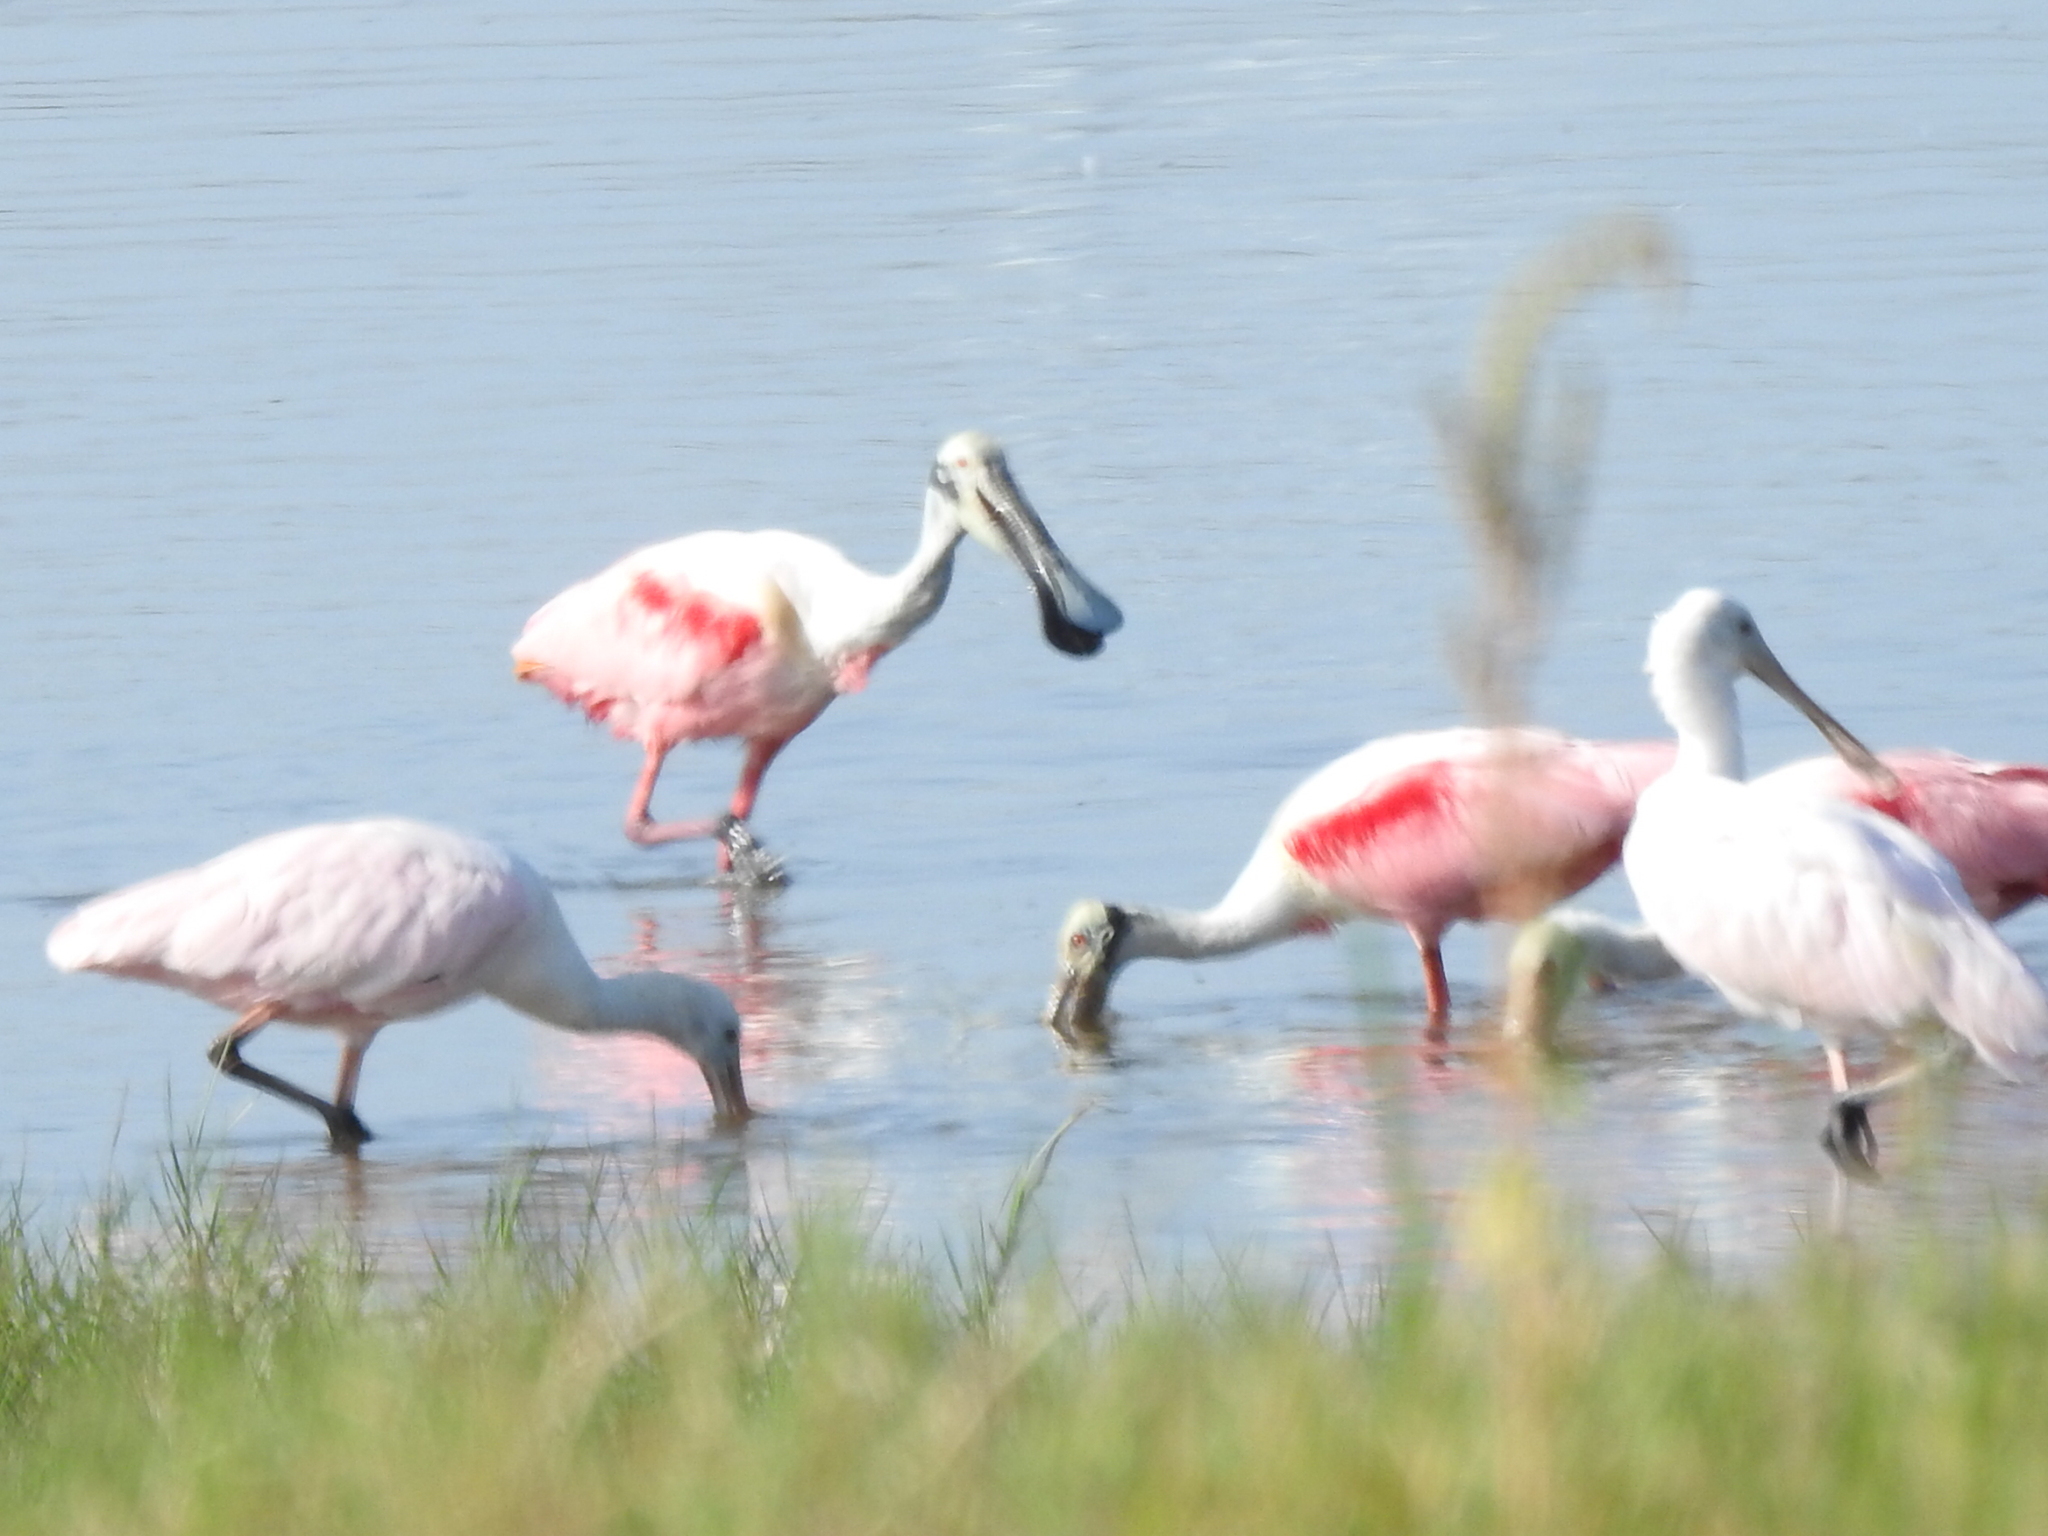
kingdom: Animalia
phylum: Chordata
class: Aves
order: Pelecaniformes
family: Threskiornithidae
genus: Platalea
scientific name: Platalea ajaja
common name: Roseate spoonbill
